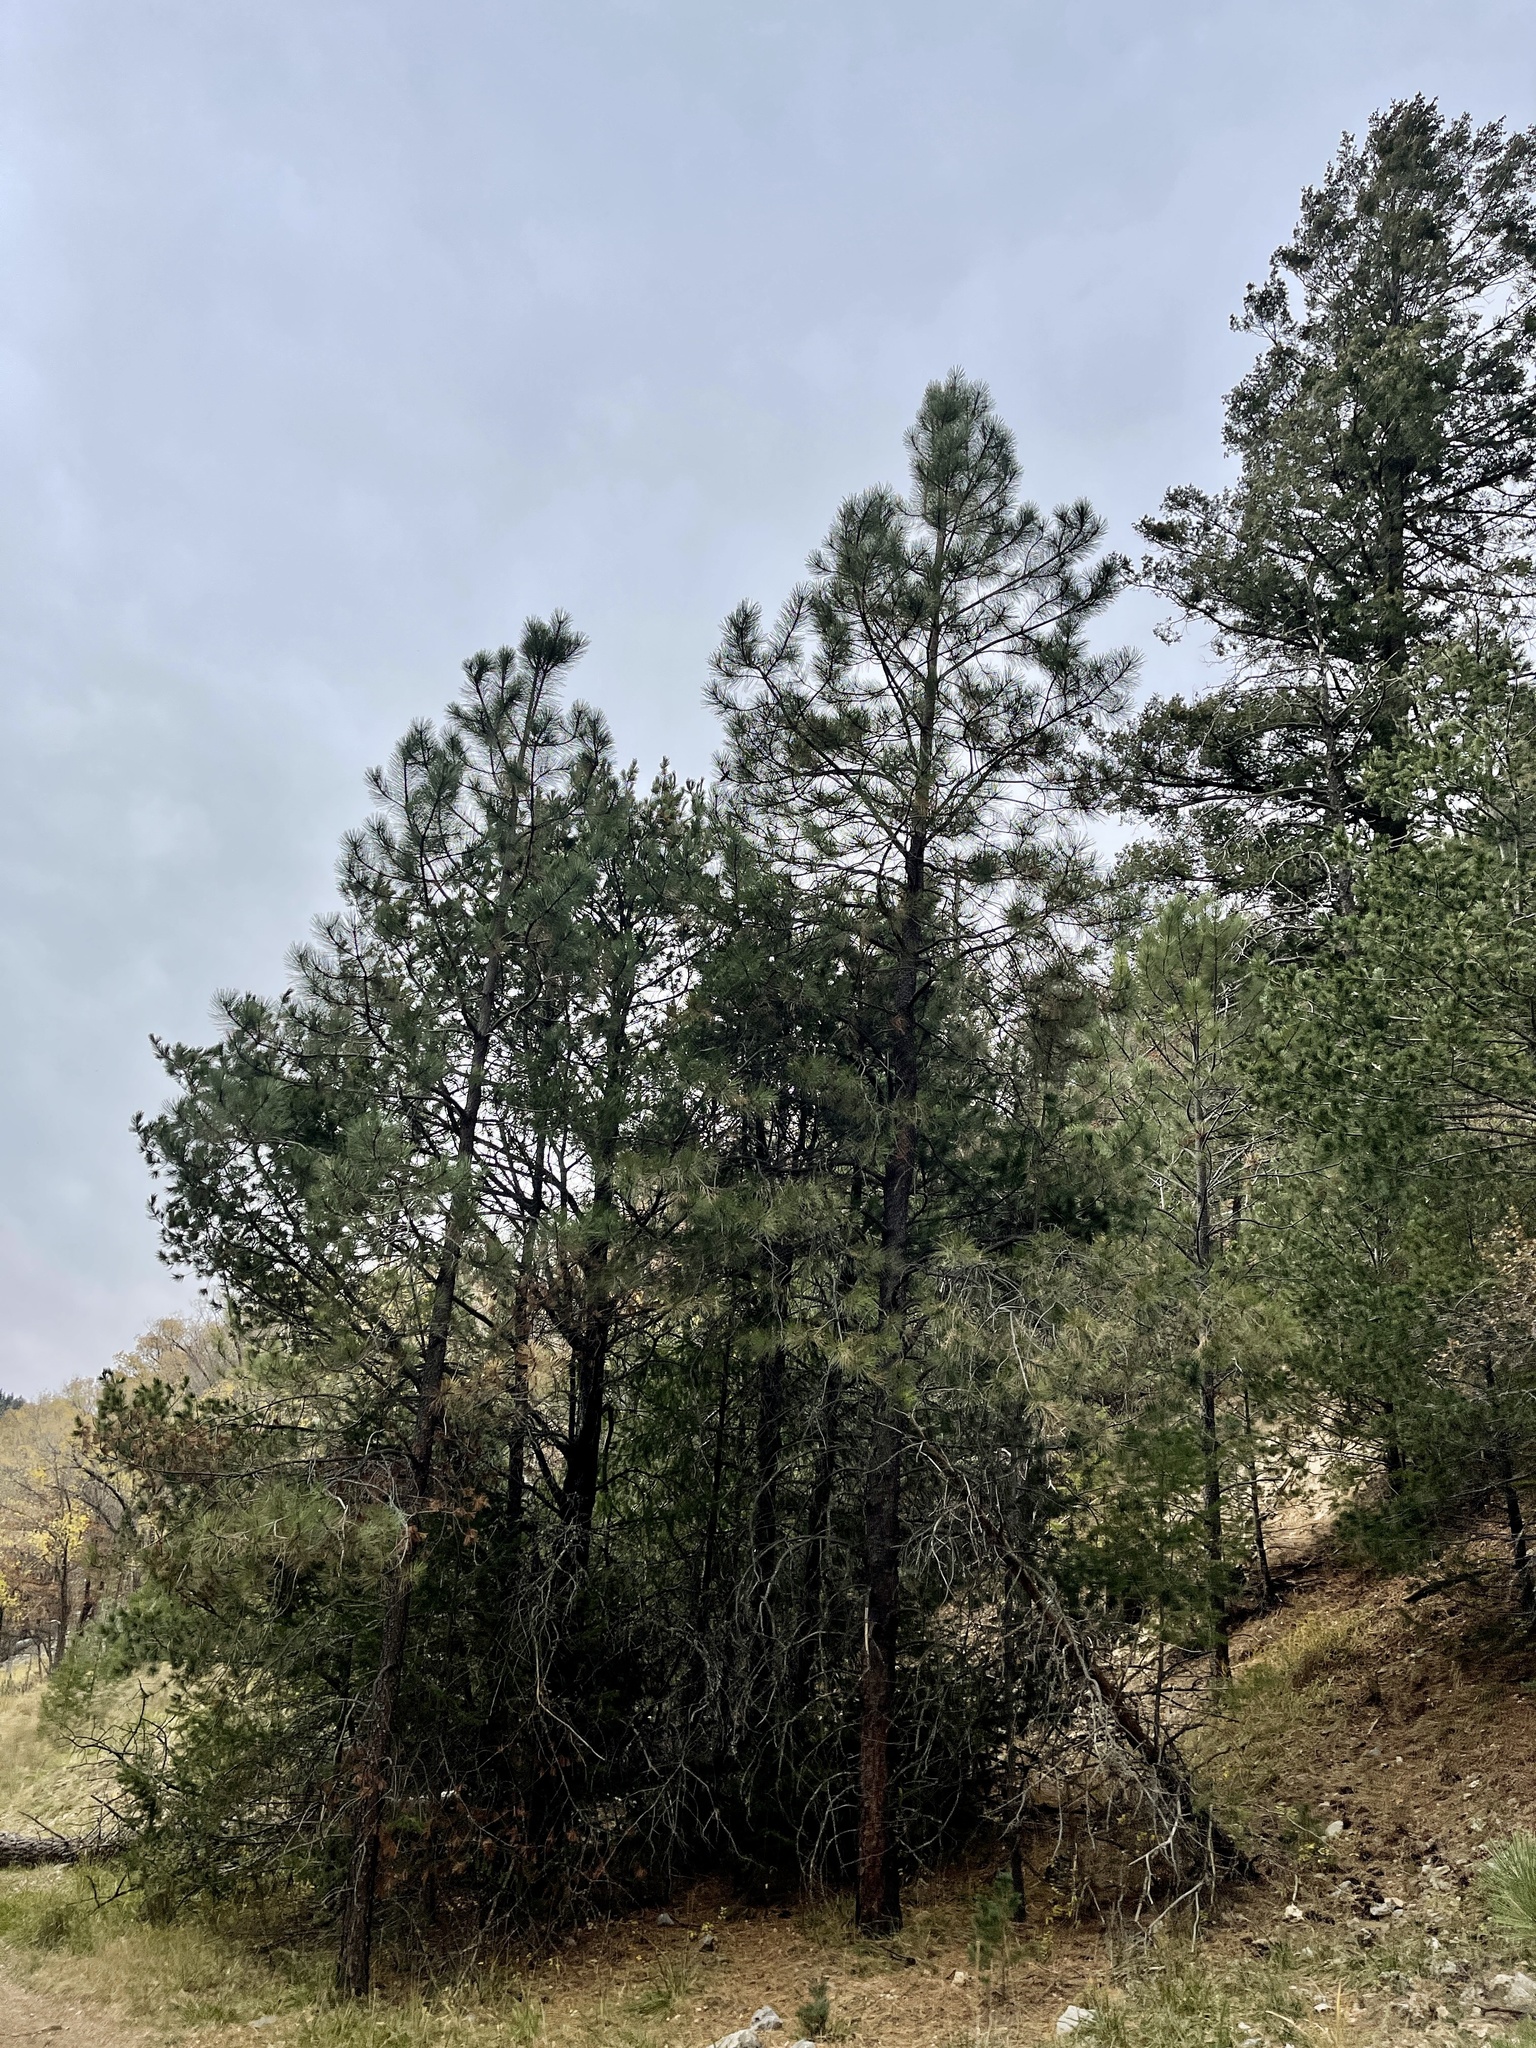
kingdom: Plantae
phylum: Tracheophyta
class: Pinopsida
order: Pinales
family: Pinaceae
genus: Pinus
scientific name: Pinus ponderosa
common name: Western yellow-pine
